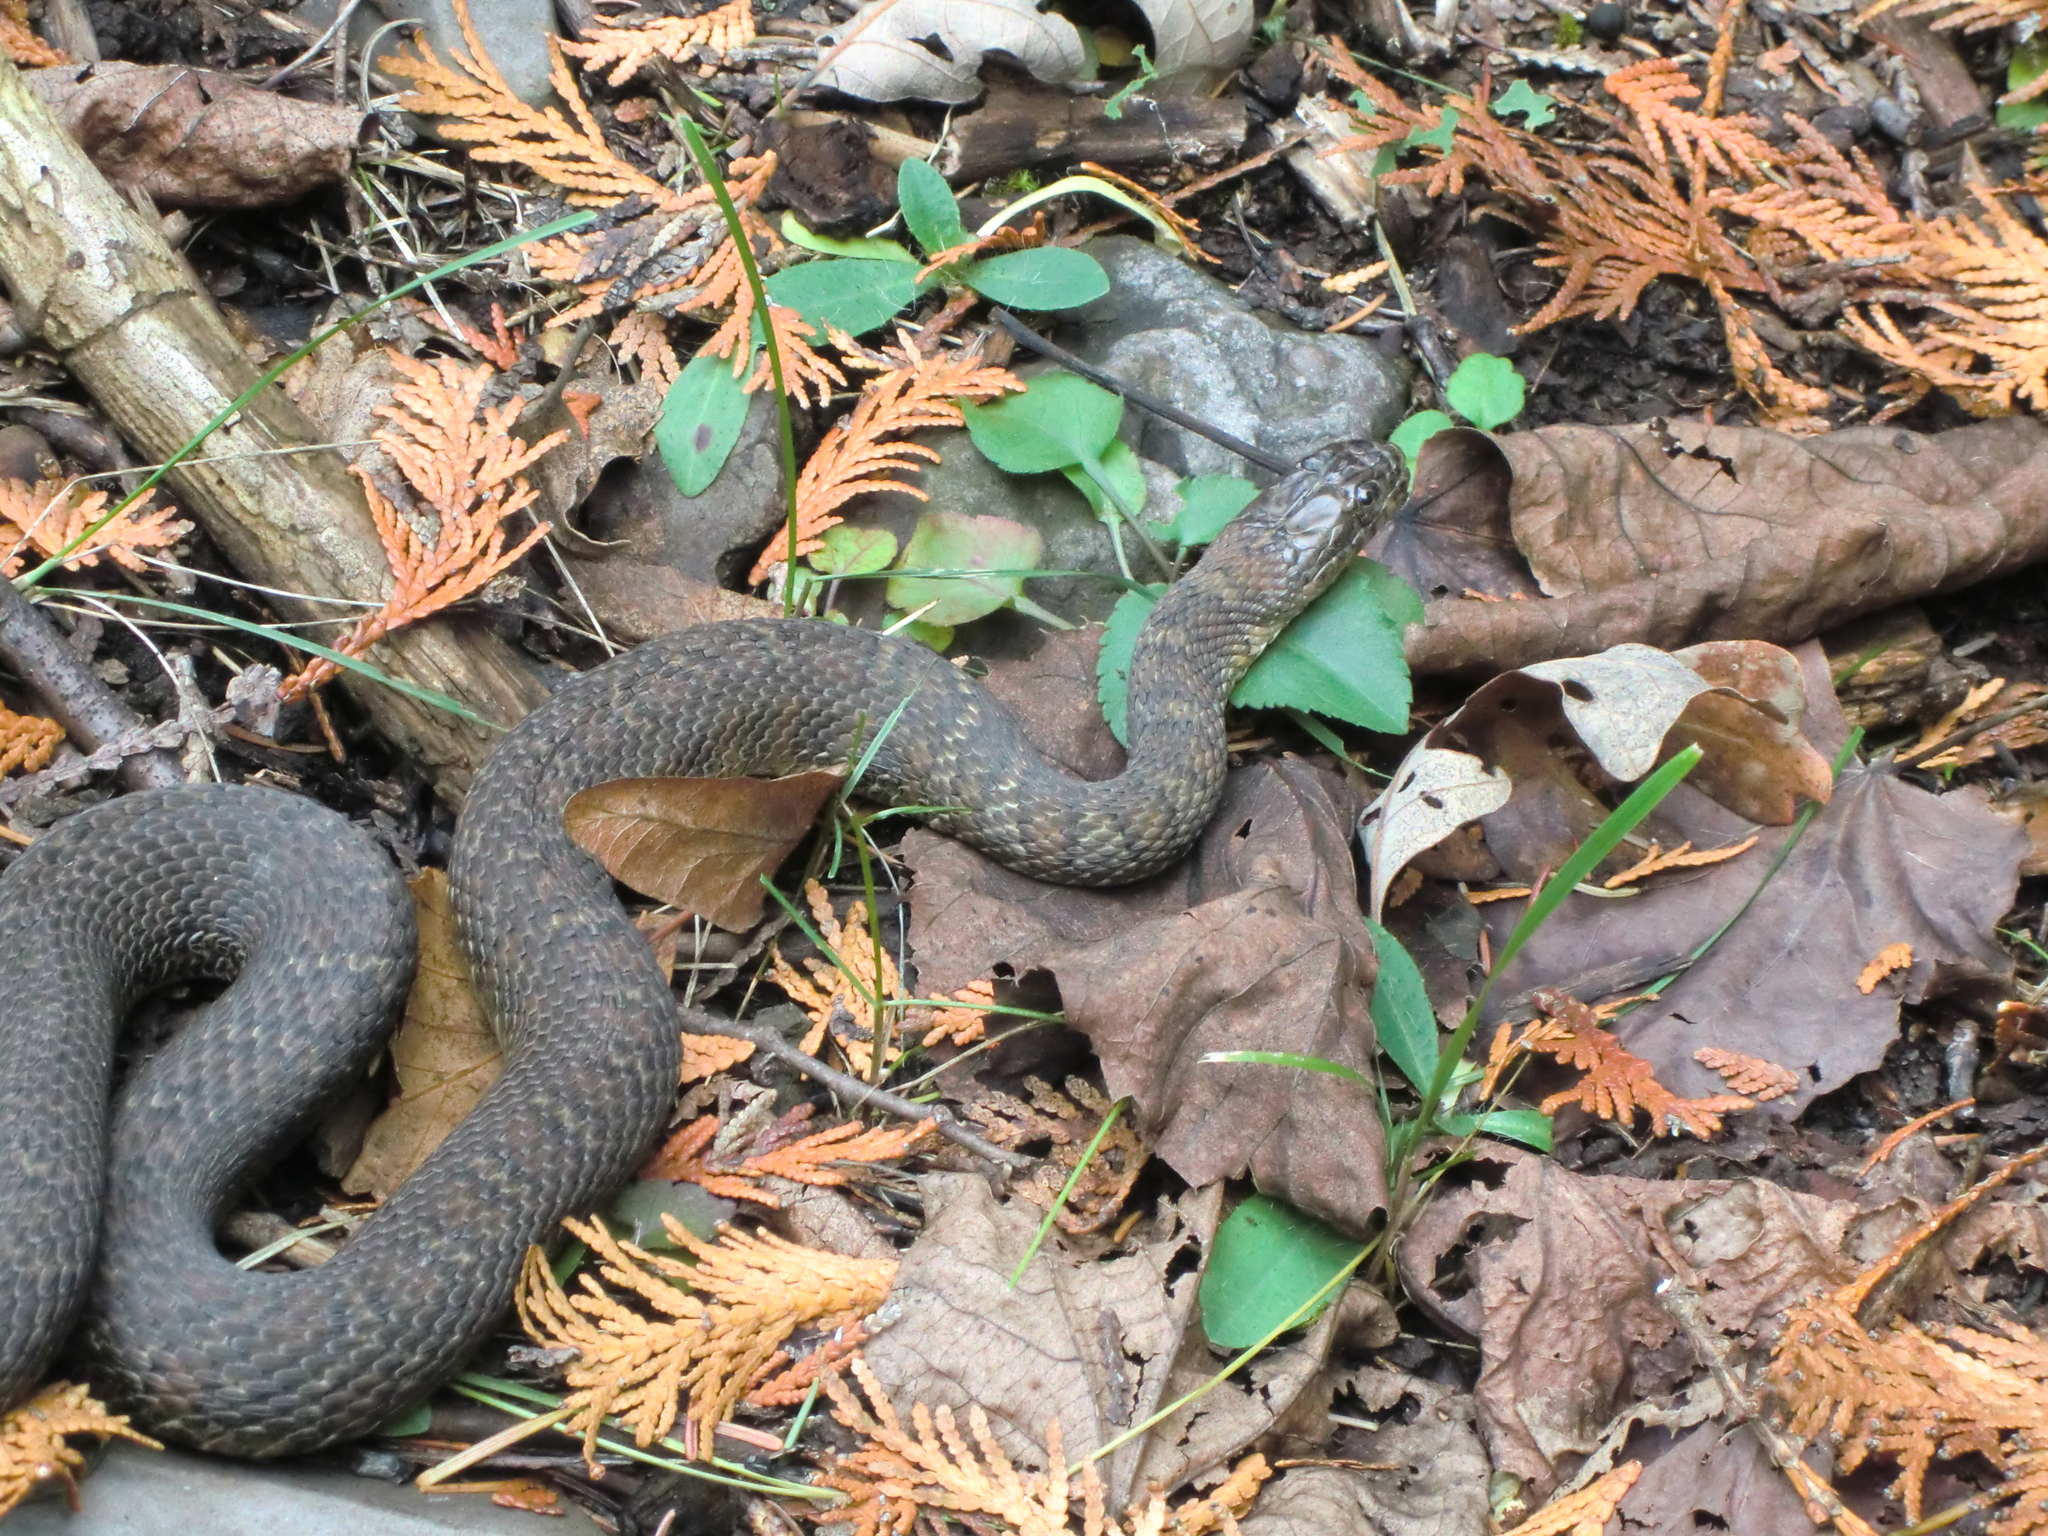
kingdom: Animalia
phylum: Chordata
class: Squamata
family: Colubridae
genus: Nerodia
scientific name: Nerodia sipedon
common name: Northern water snake
